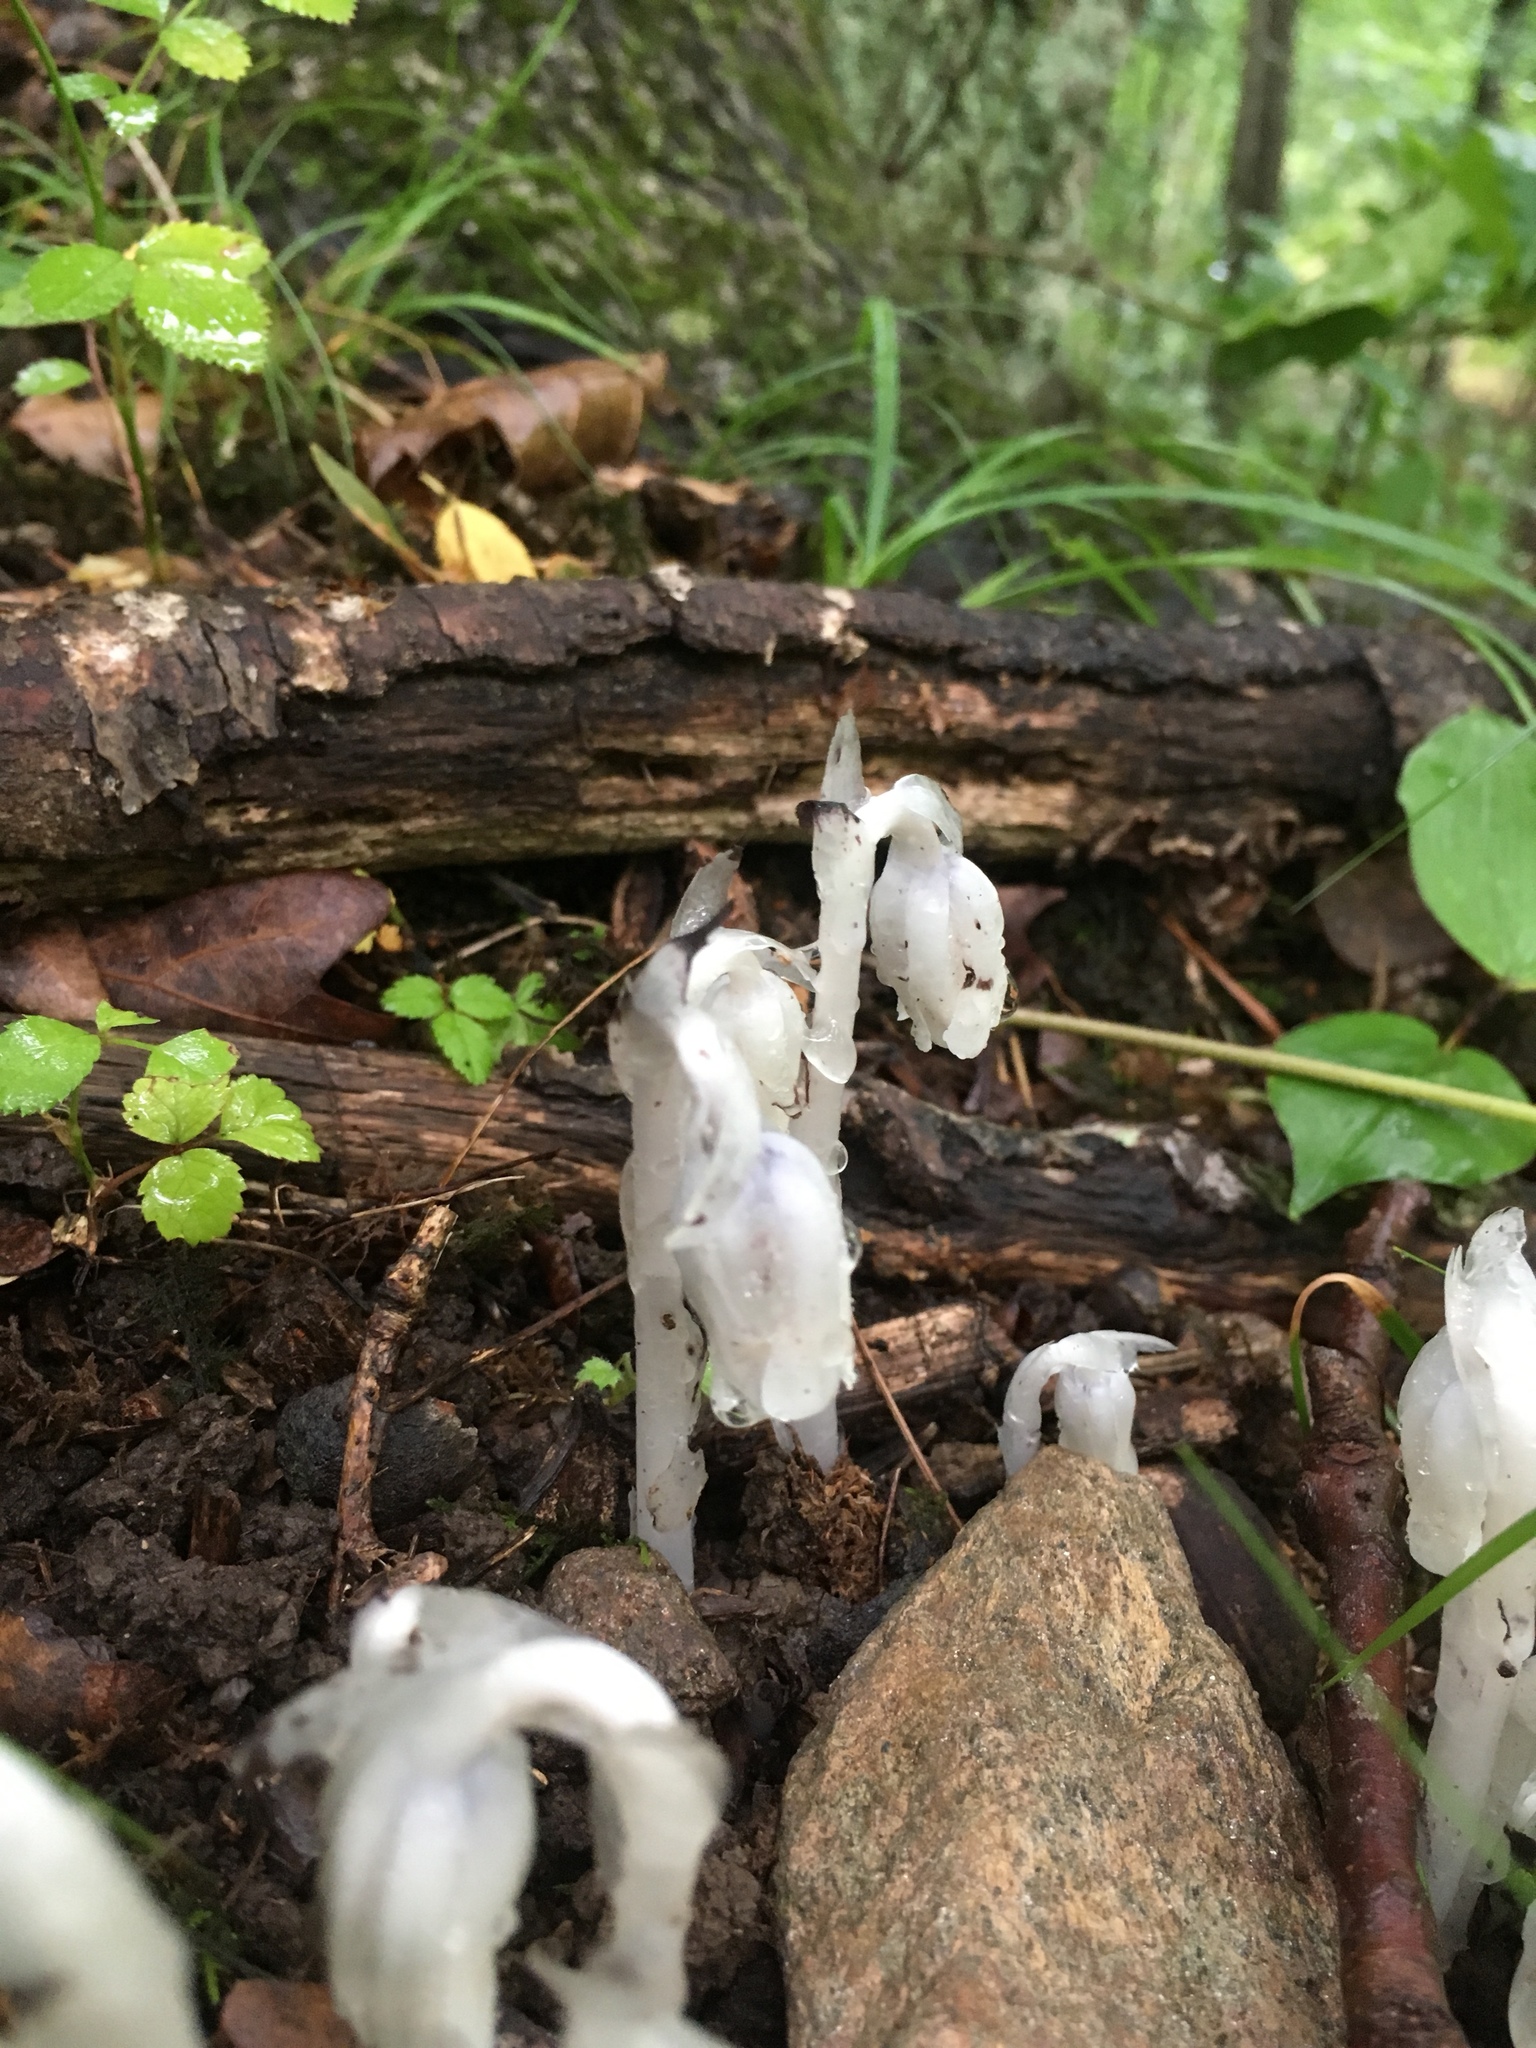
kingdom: Plantae
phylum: Tracheophyta
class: Magnoliopsida
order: Ericales
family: Ericaceae
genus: Monotropa
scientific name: Monotropa uniflora
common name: Convulsion root
